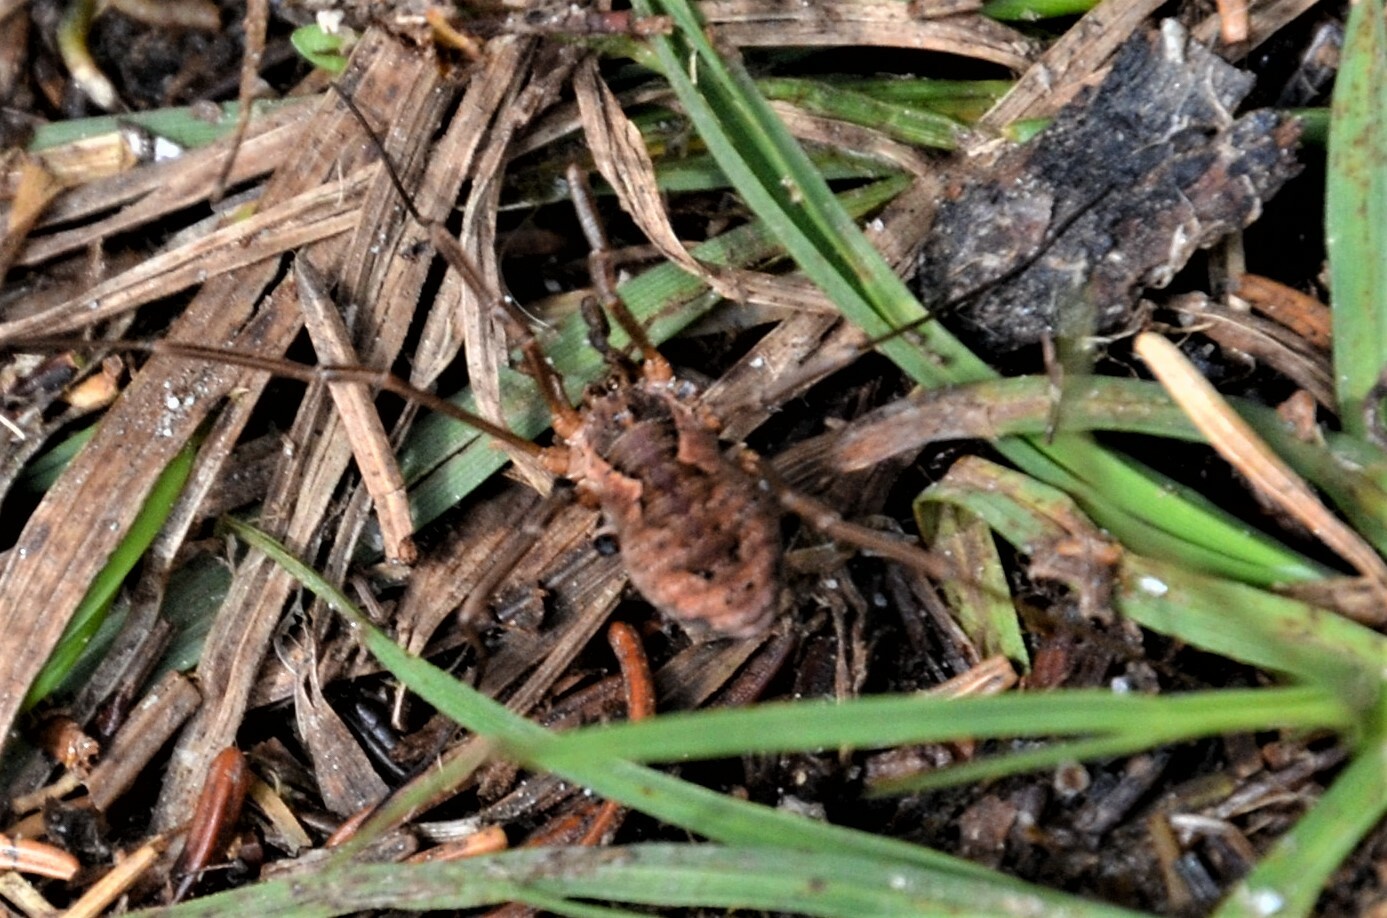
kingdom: Animalia
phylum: Arthropoda
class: Arachnida
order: Opiliones
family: Phalangiidae
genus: Mitopus
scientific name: Mitopus morio
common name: Saddleback harvestman
